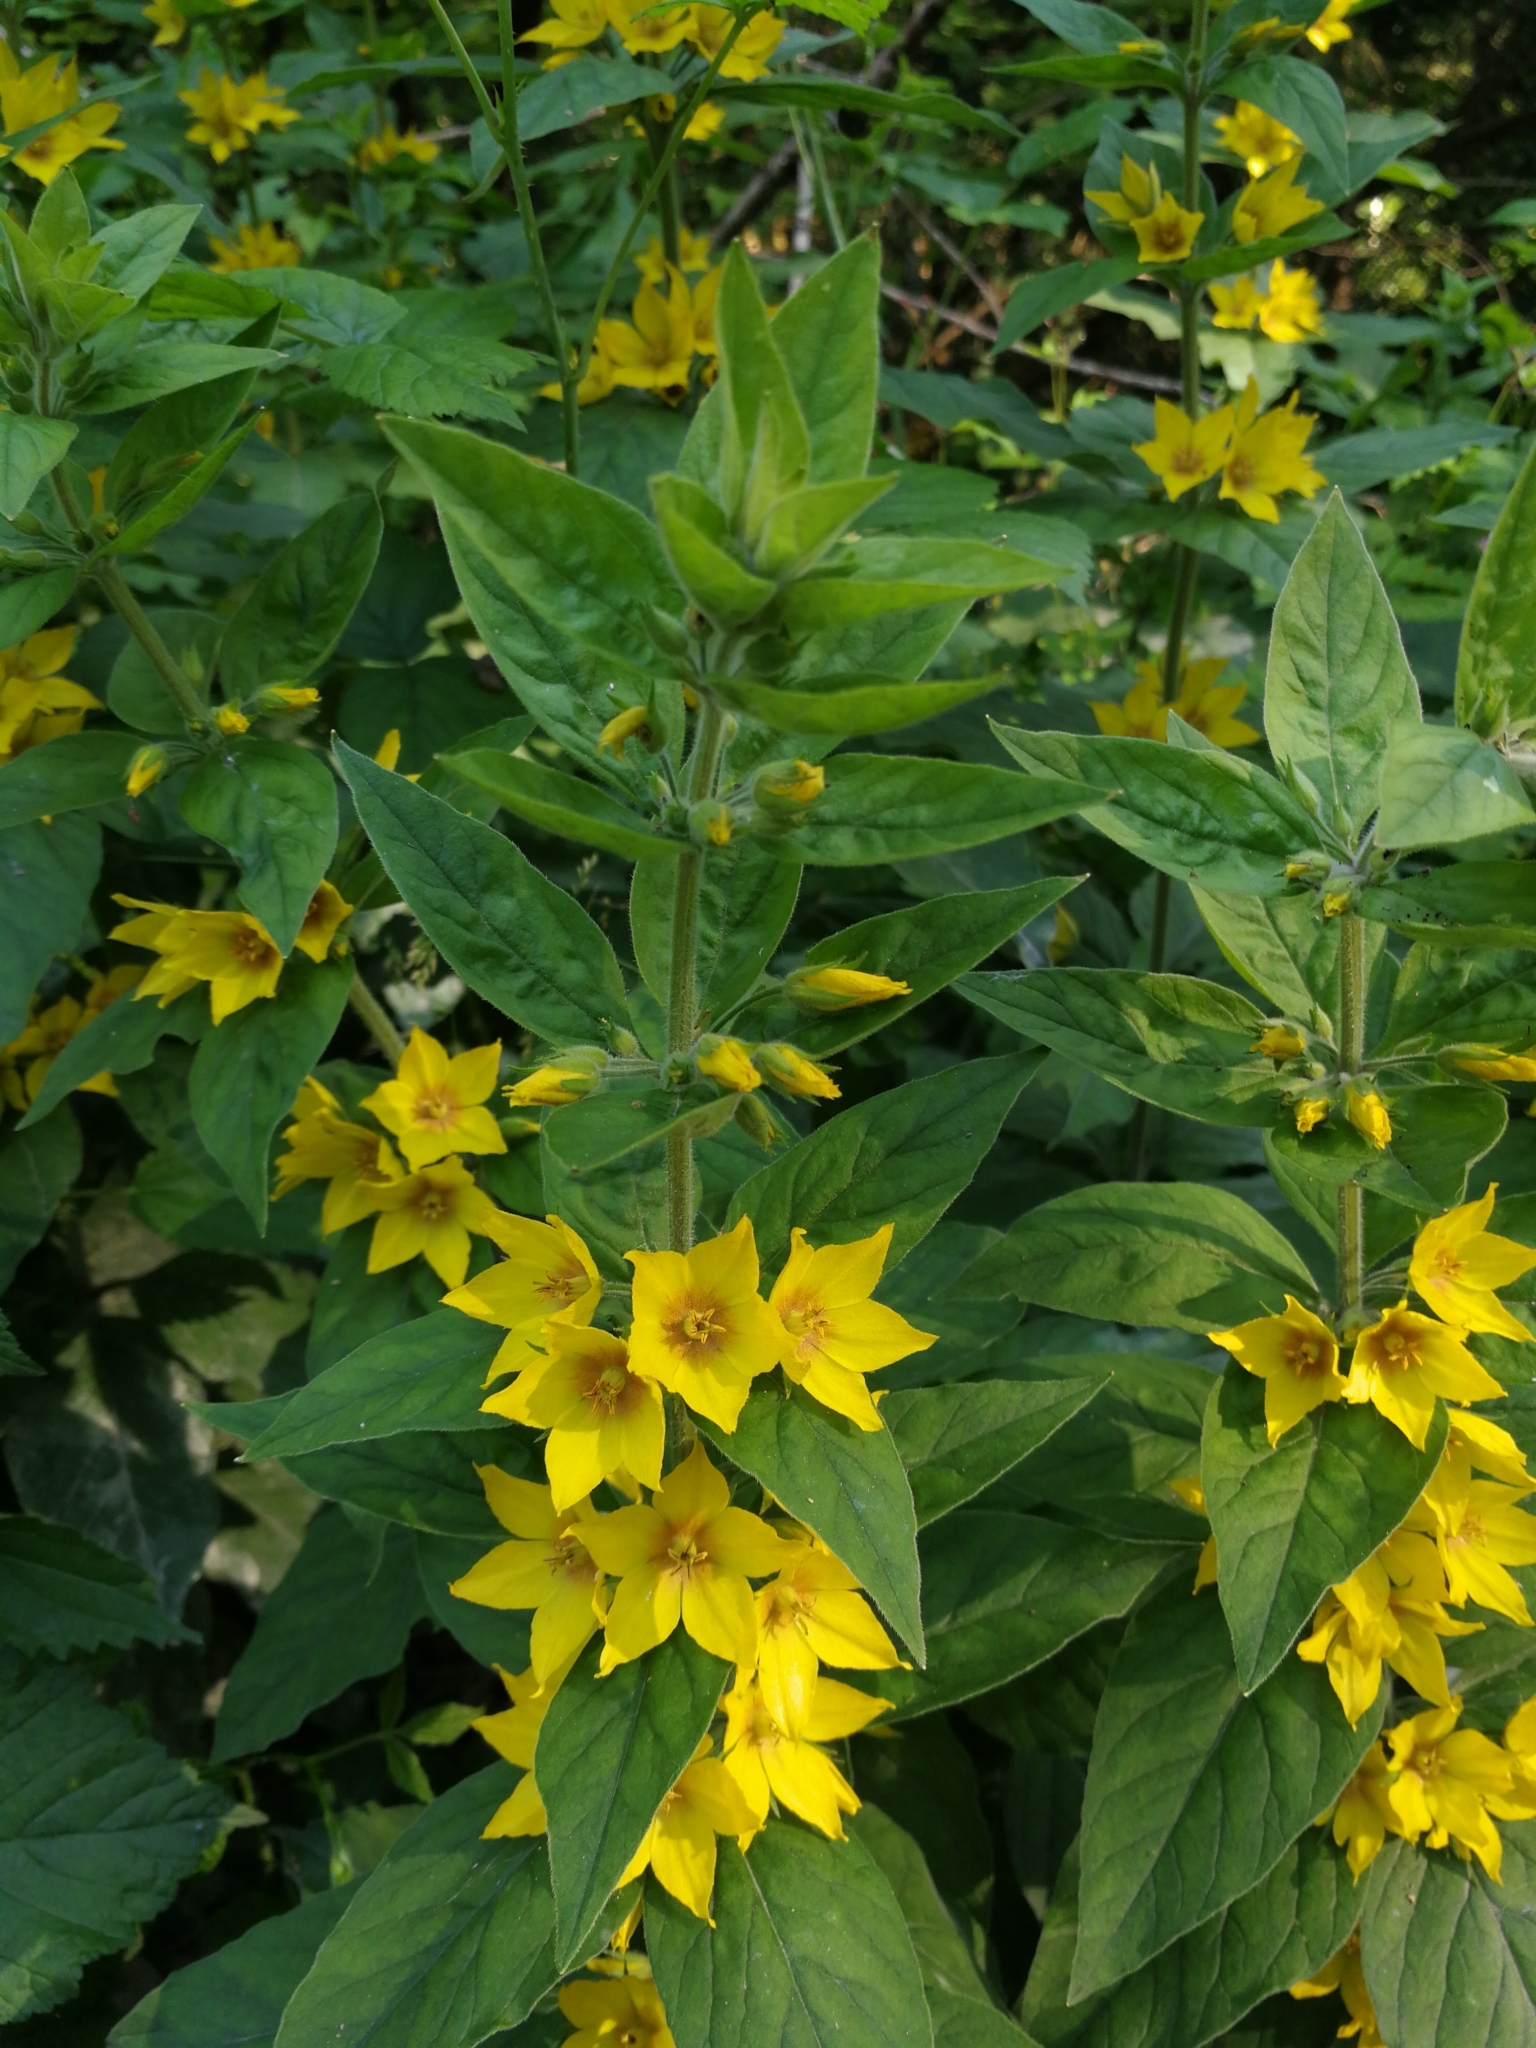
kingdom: Plantae
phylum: Tracheophyta
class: Magnoliopsida
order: Ericales
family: Primulaceae
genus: Lysimachia
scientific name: Lysimachia punctata
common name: Dotted loosestrife
